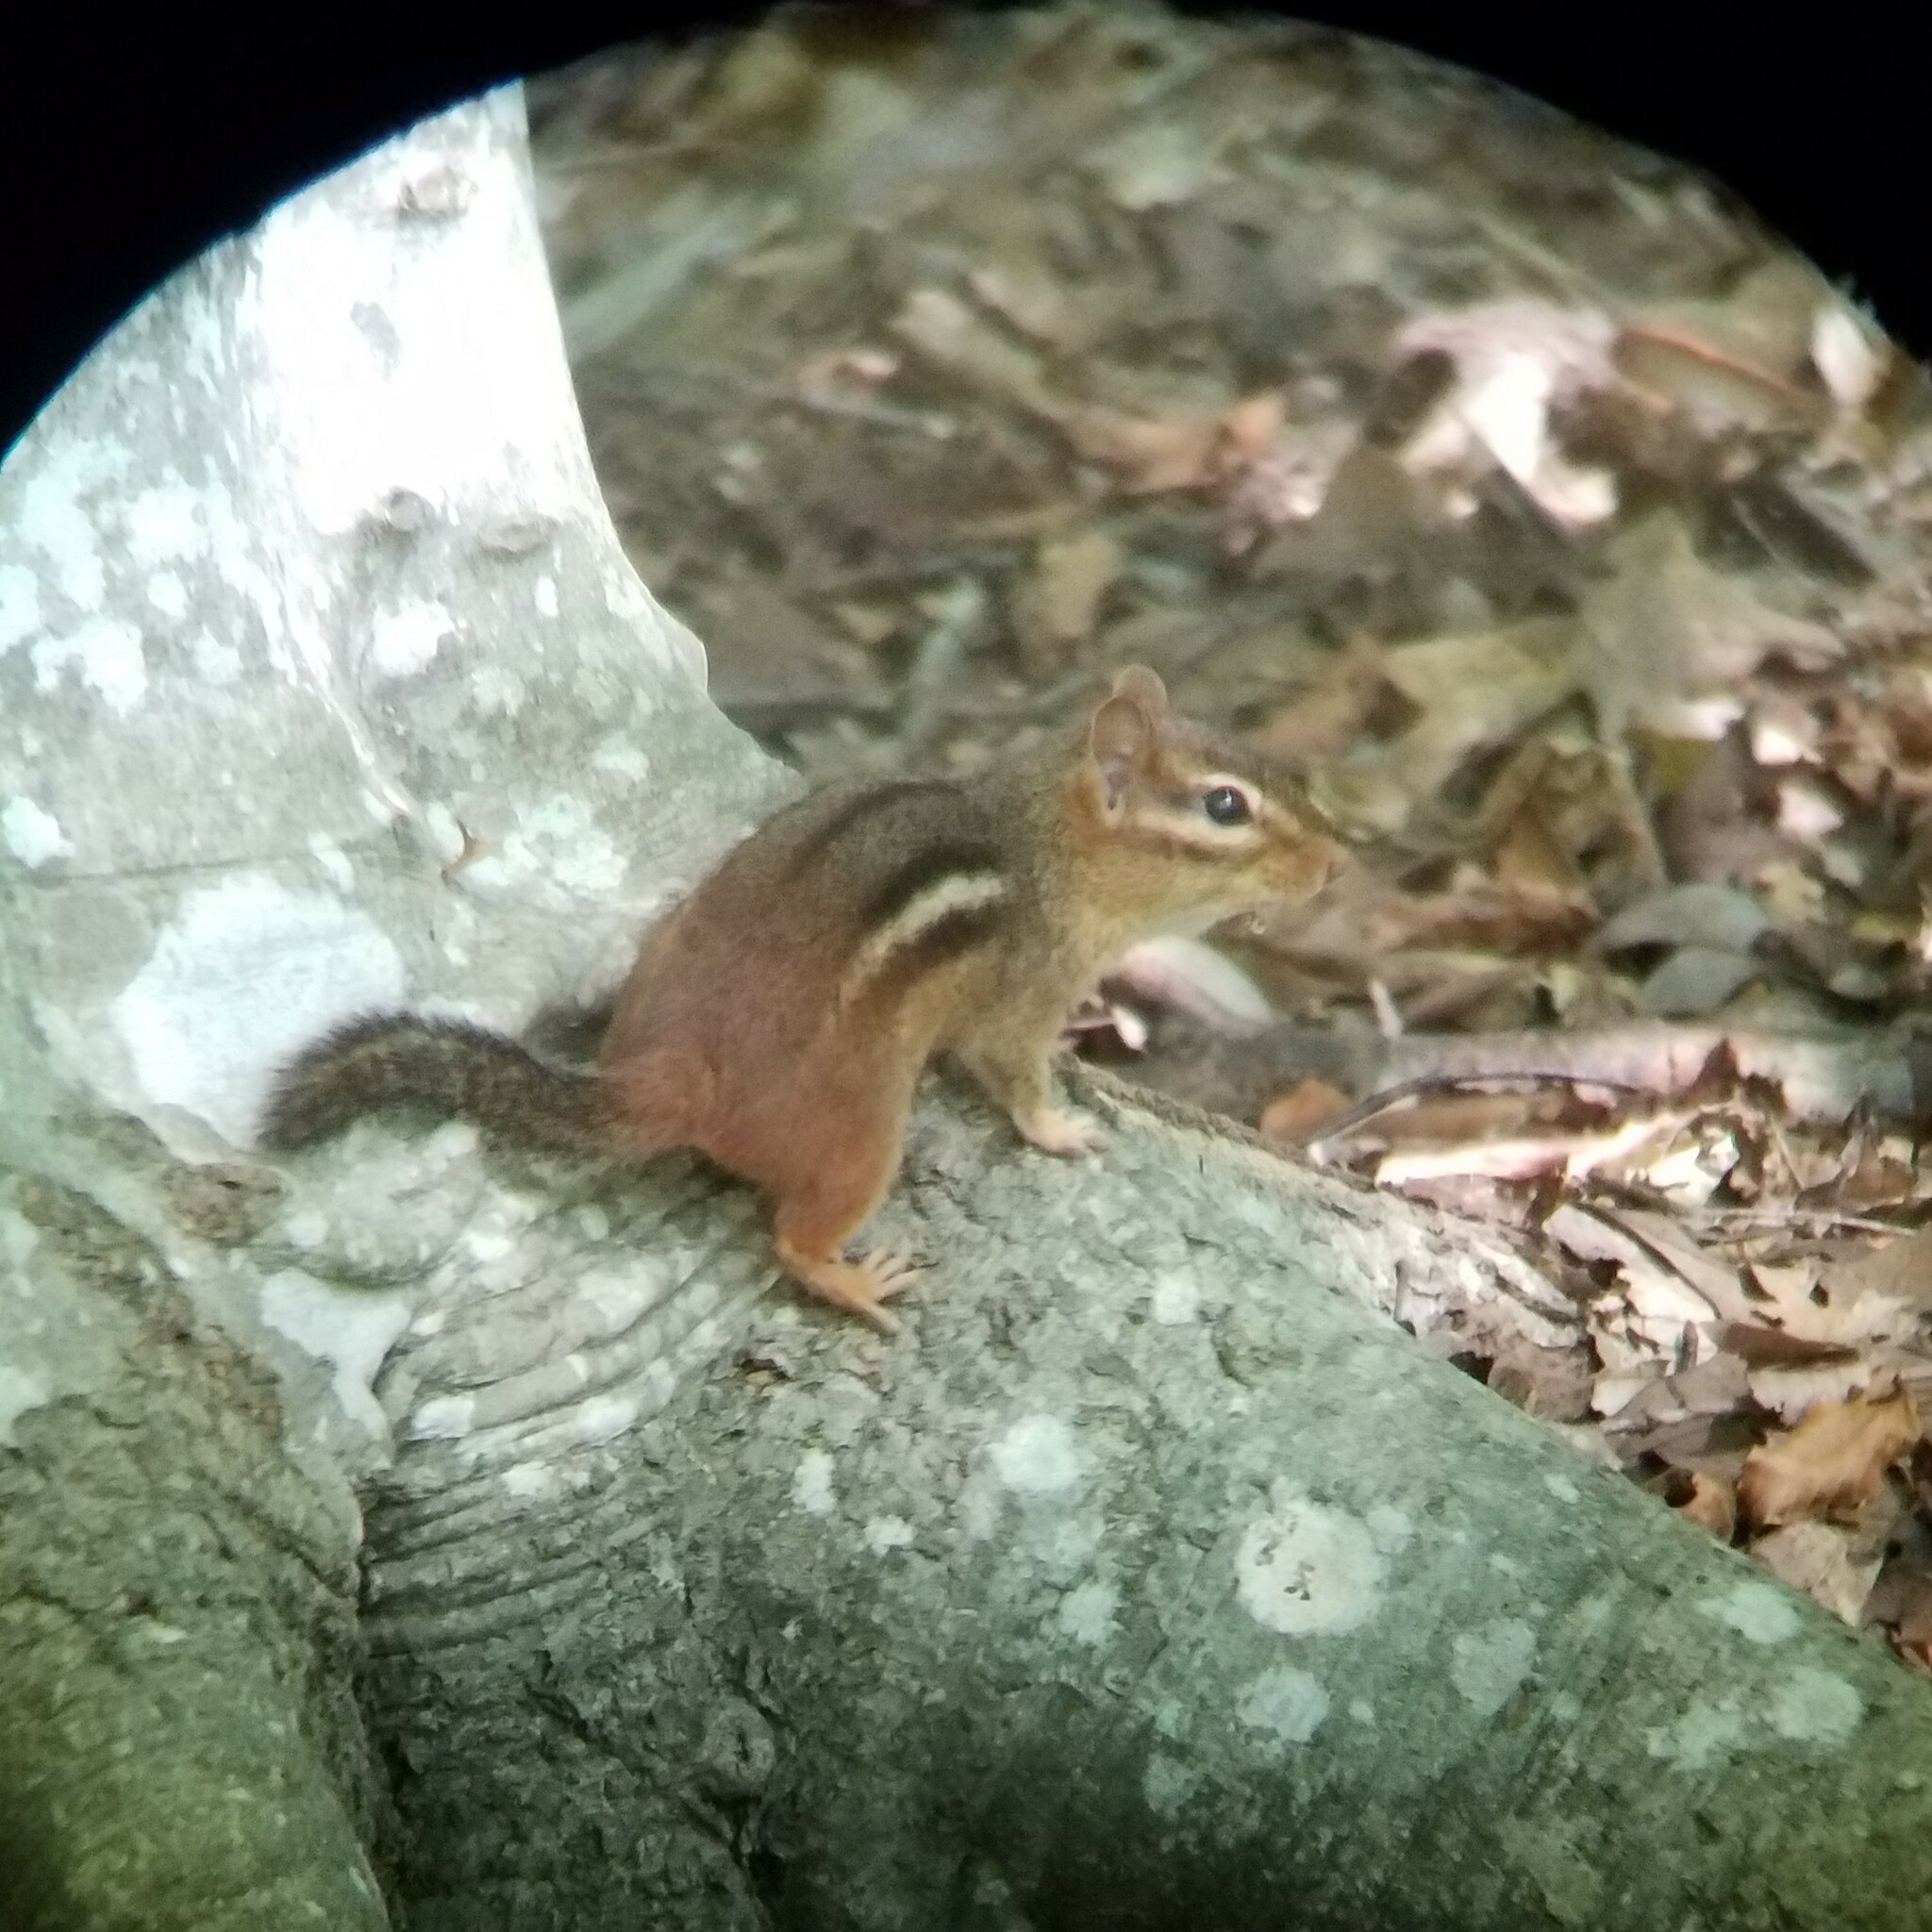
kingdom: Animalia
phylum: Chordata
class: Mammalia
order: Rodentia
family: Sciuridae
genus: Tamias
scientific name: Tamias striatus
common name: Eastern chipmunk
